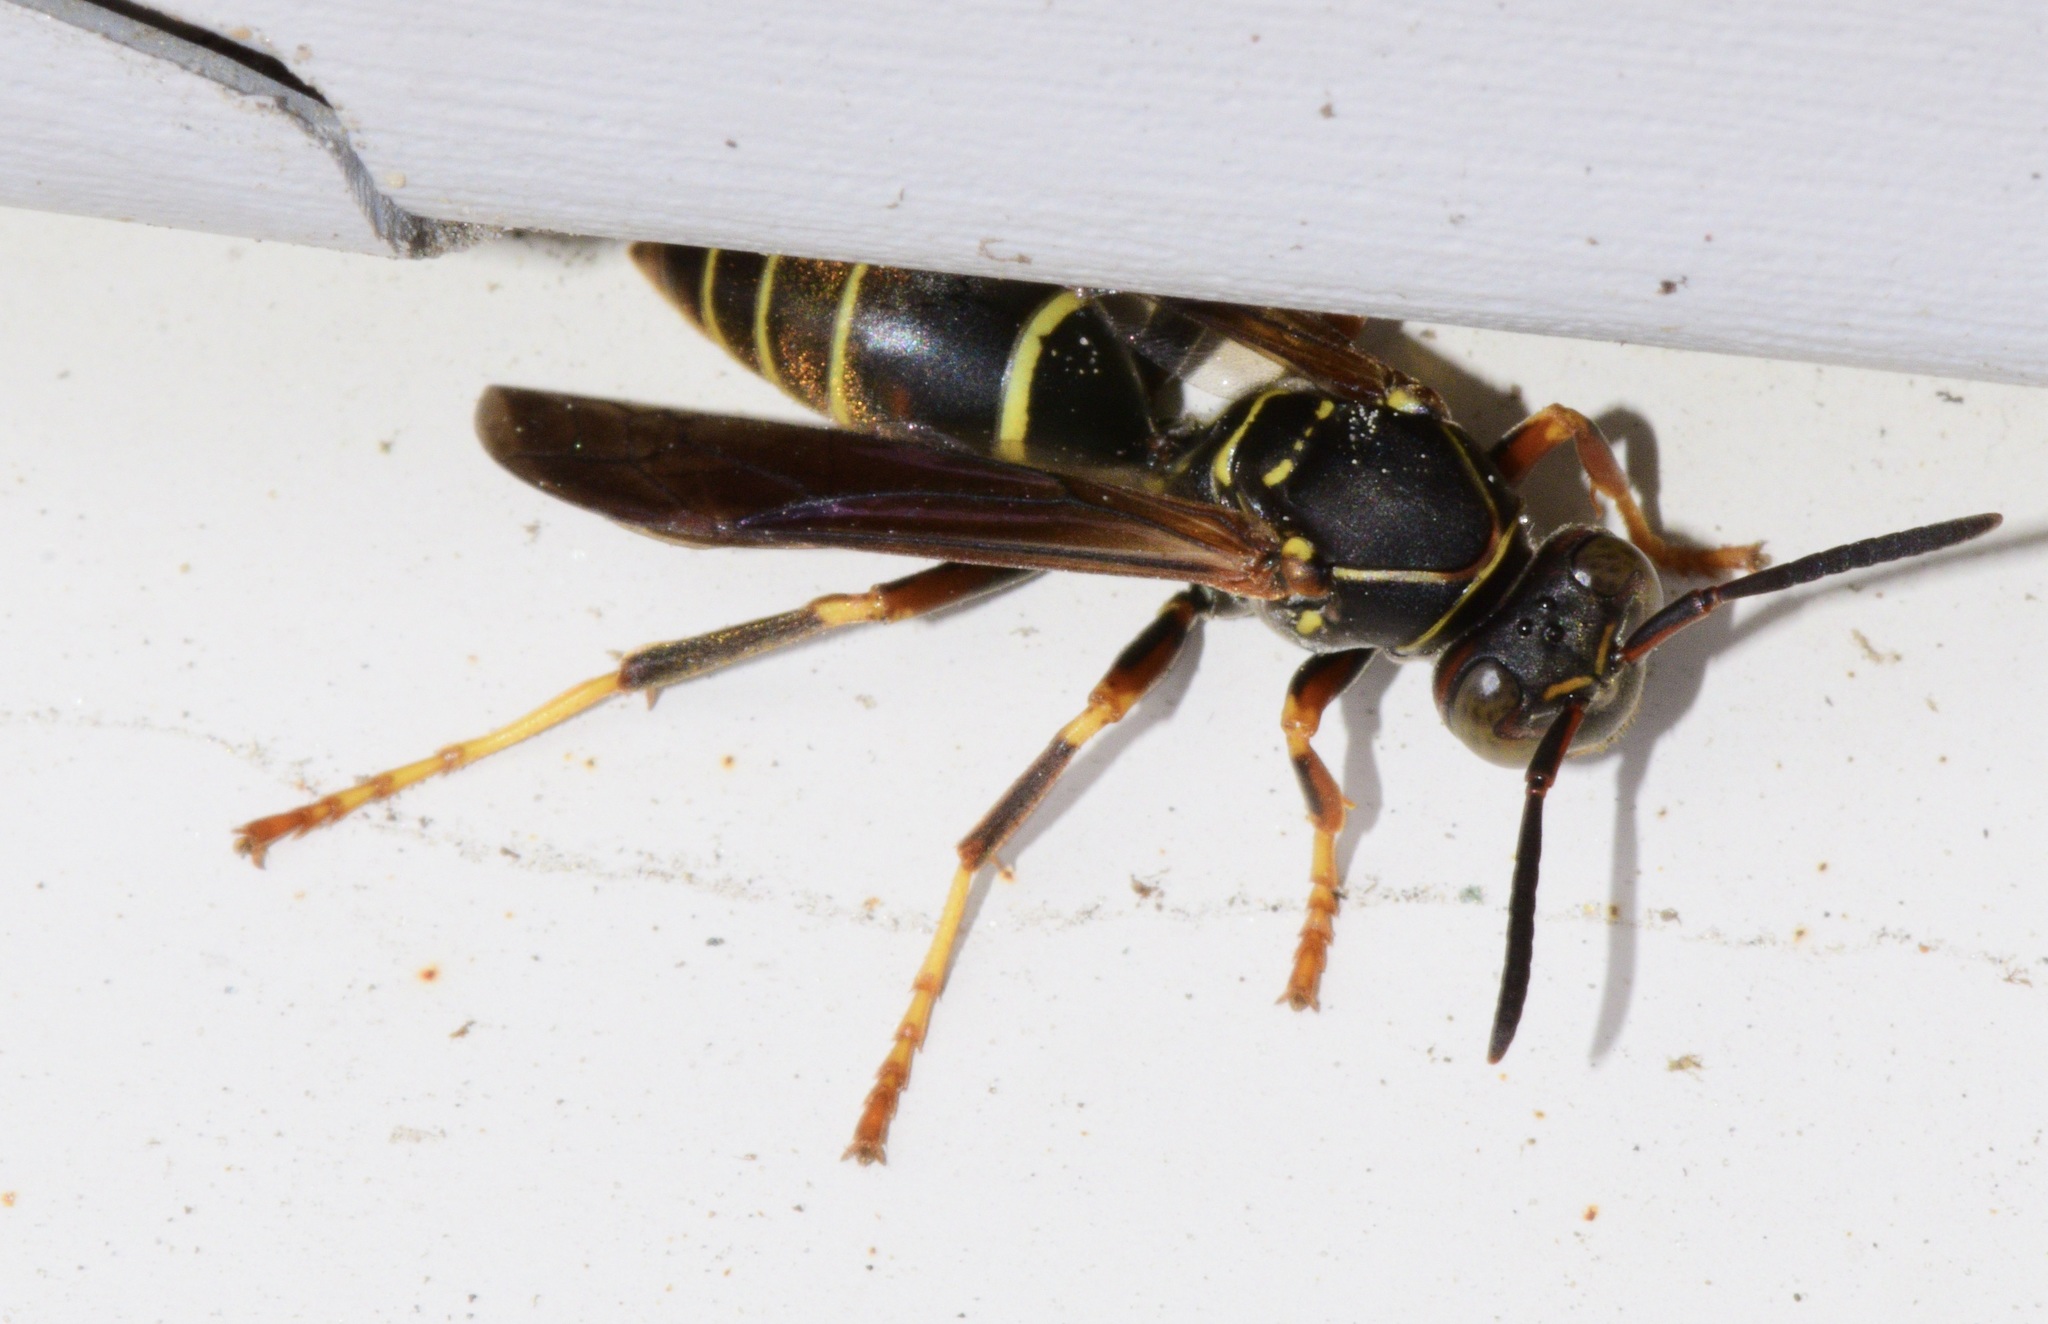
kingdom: Animalia
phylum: Arthropoda
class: Insecta
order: Hymenoptera
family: Eumenidae
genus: Polistes
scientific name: Polistes fuscatus
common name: Dark paper wasp
